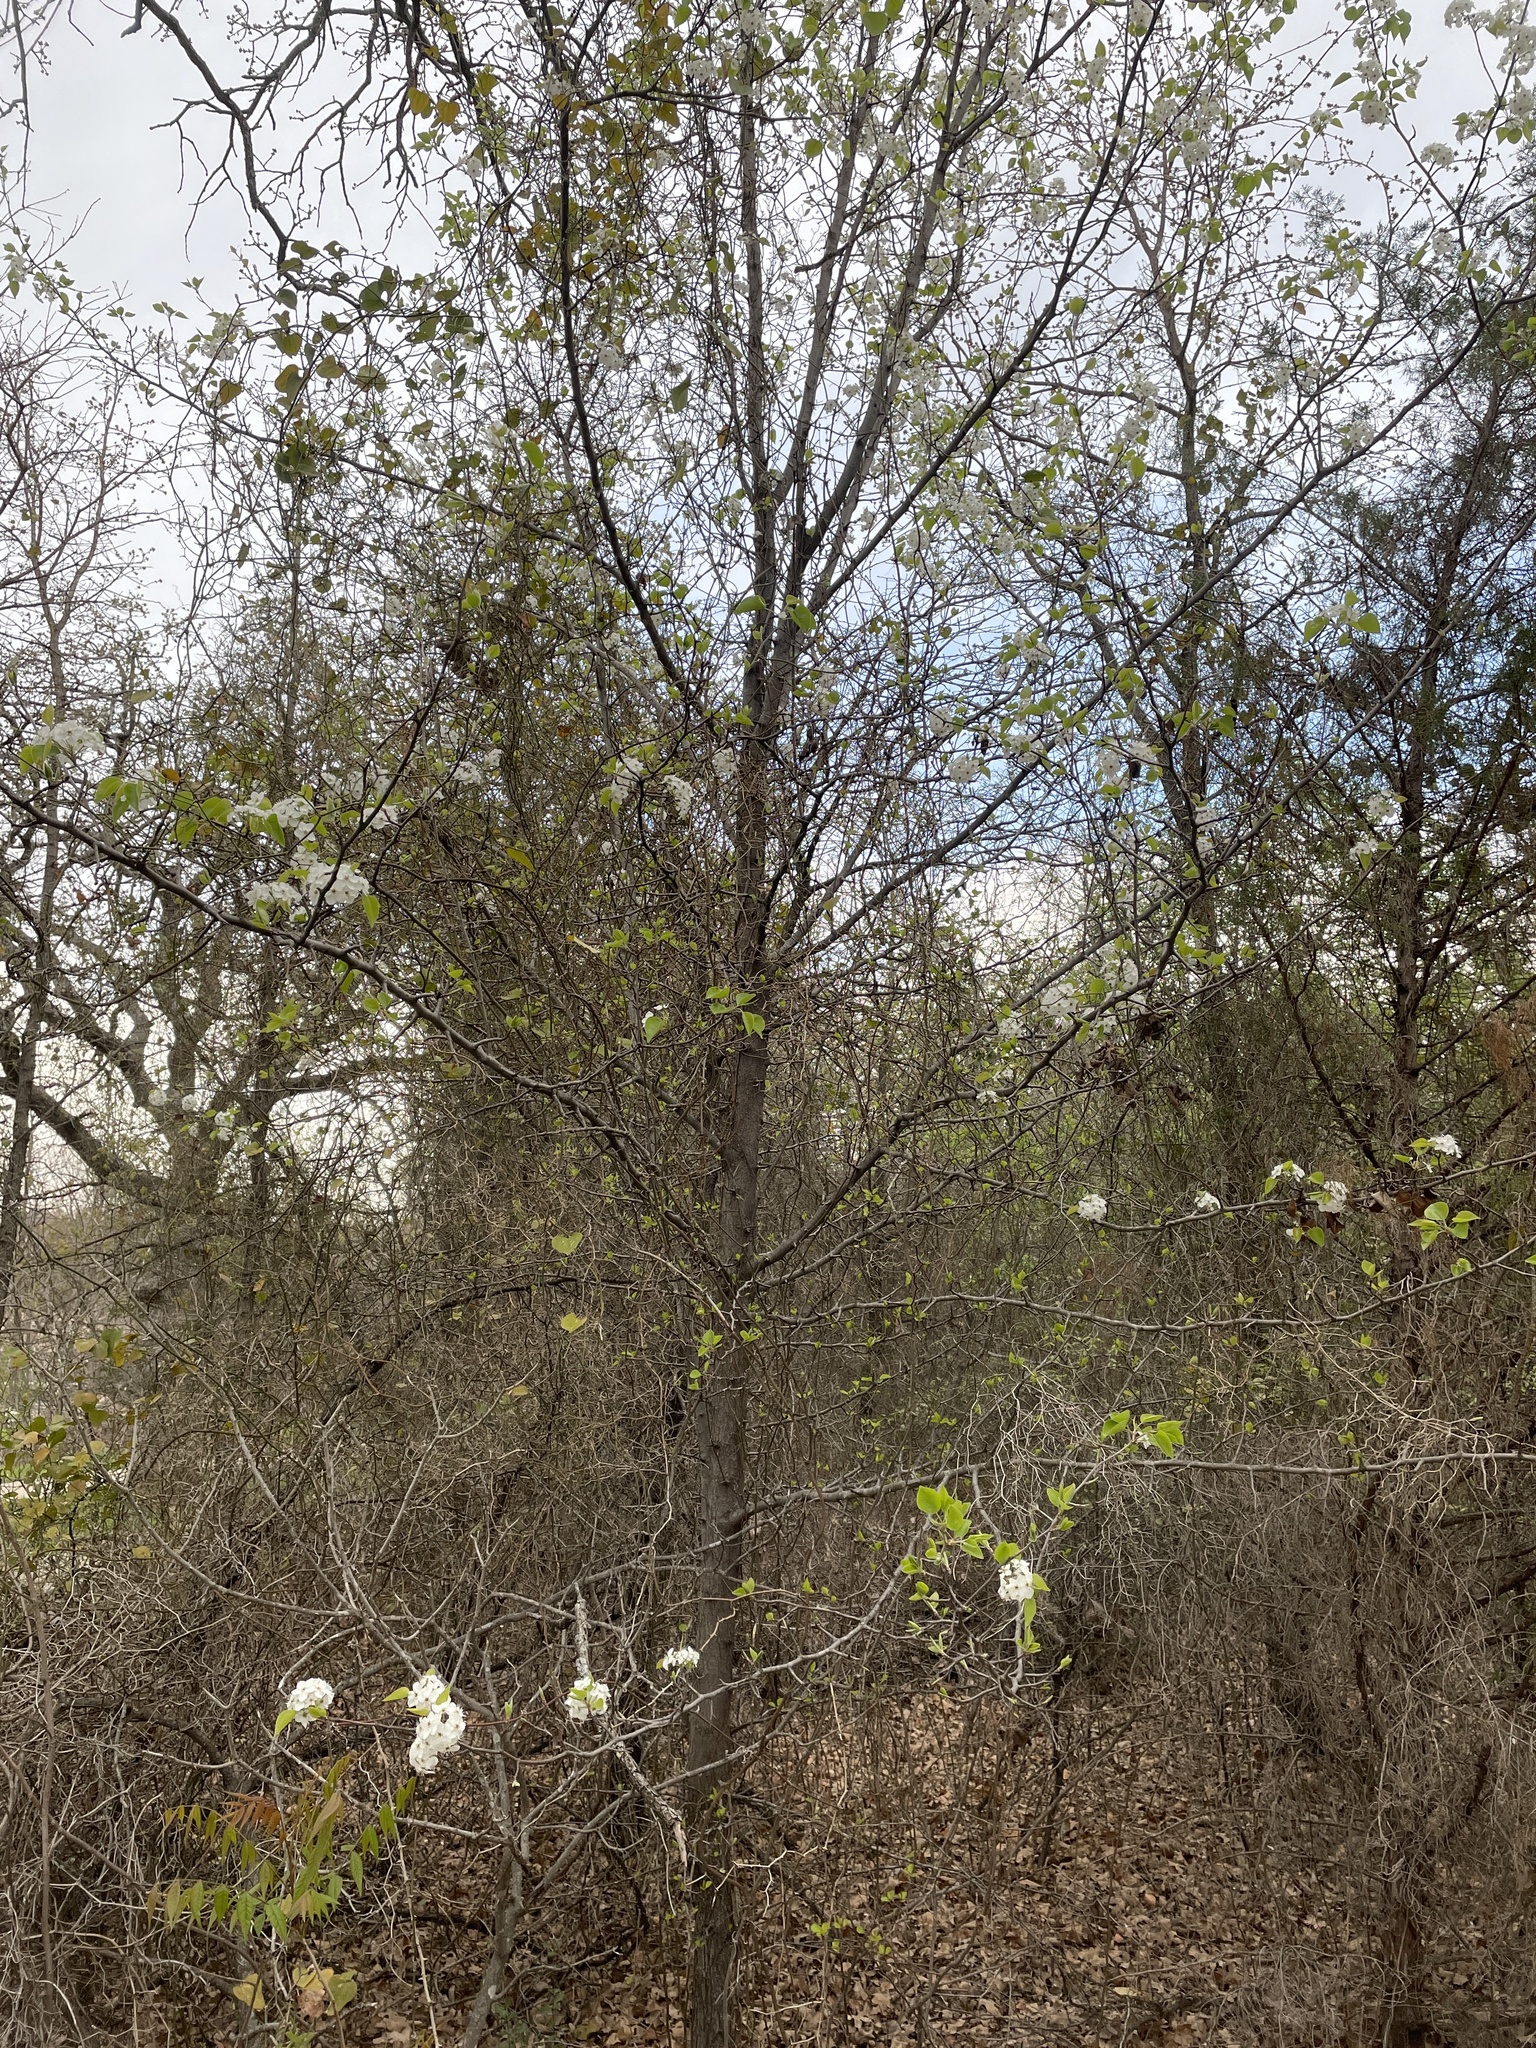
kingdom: Plantae
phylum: Tracheophyta
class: Magnoliopsida
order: Rosales
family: Rosaceae
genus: Pyrus
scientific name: Pyrus calleryana
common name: Callery pear
